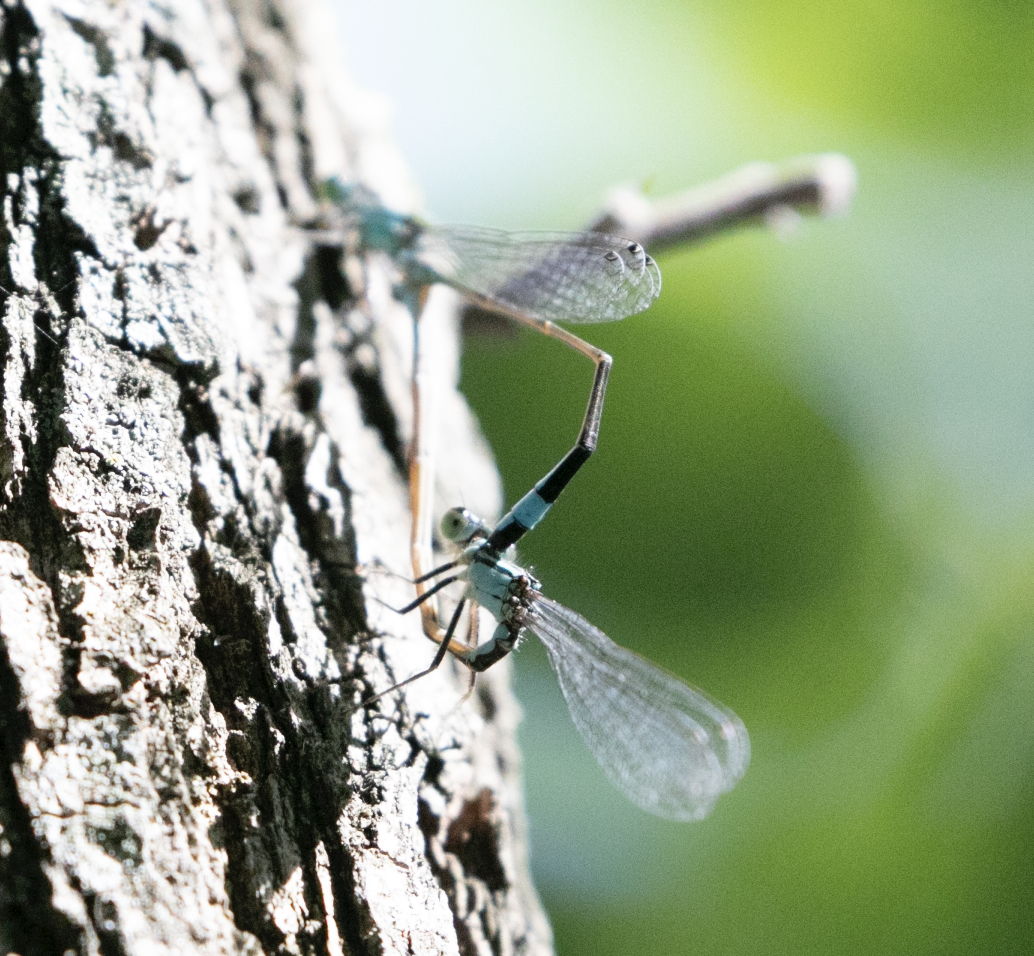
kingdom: Animalia
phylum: Arthropoda
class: Insecta
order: Odonata
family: Coenagrionidae
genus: Ischnura
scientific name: Ischnura elegans
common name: Blue-tailed damselfly
